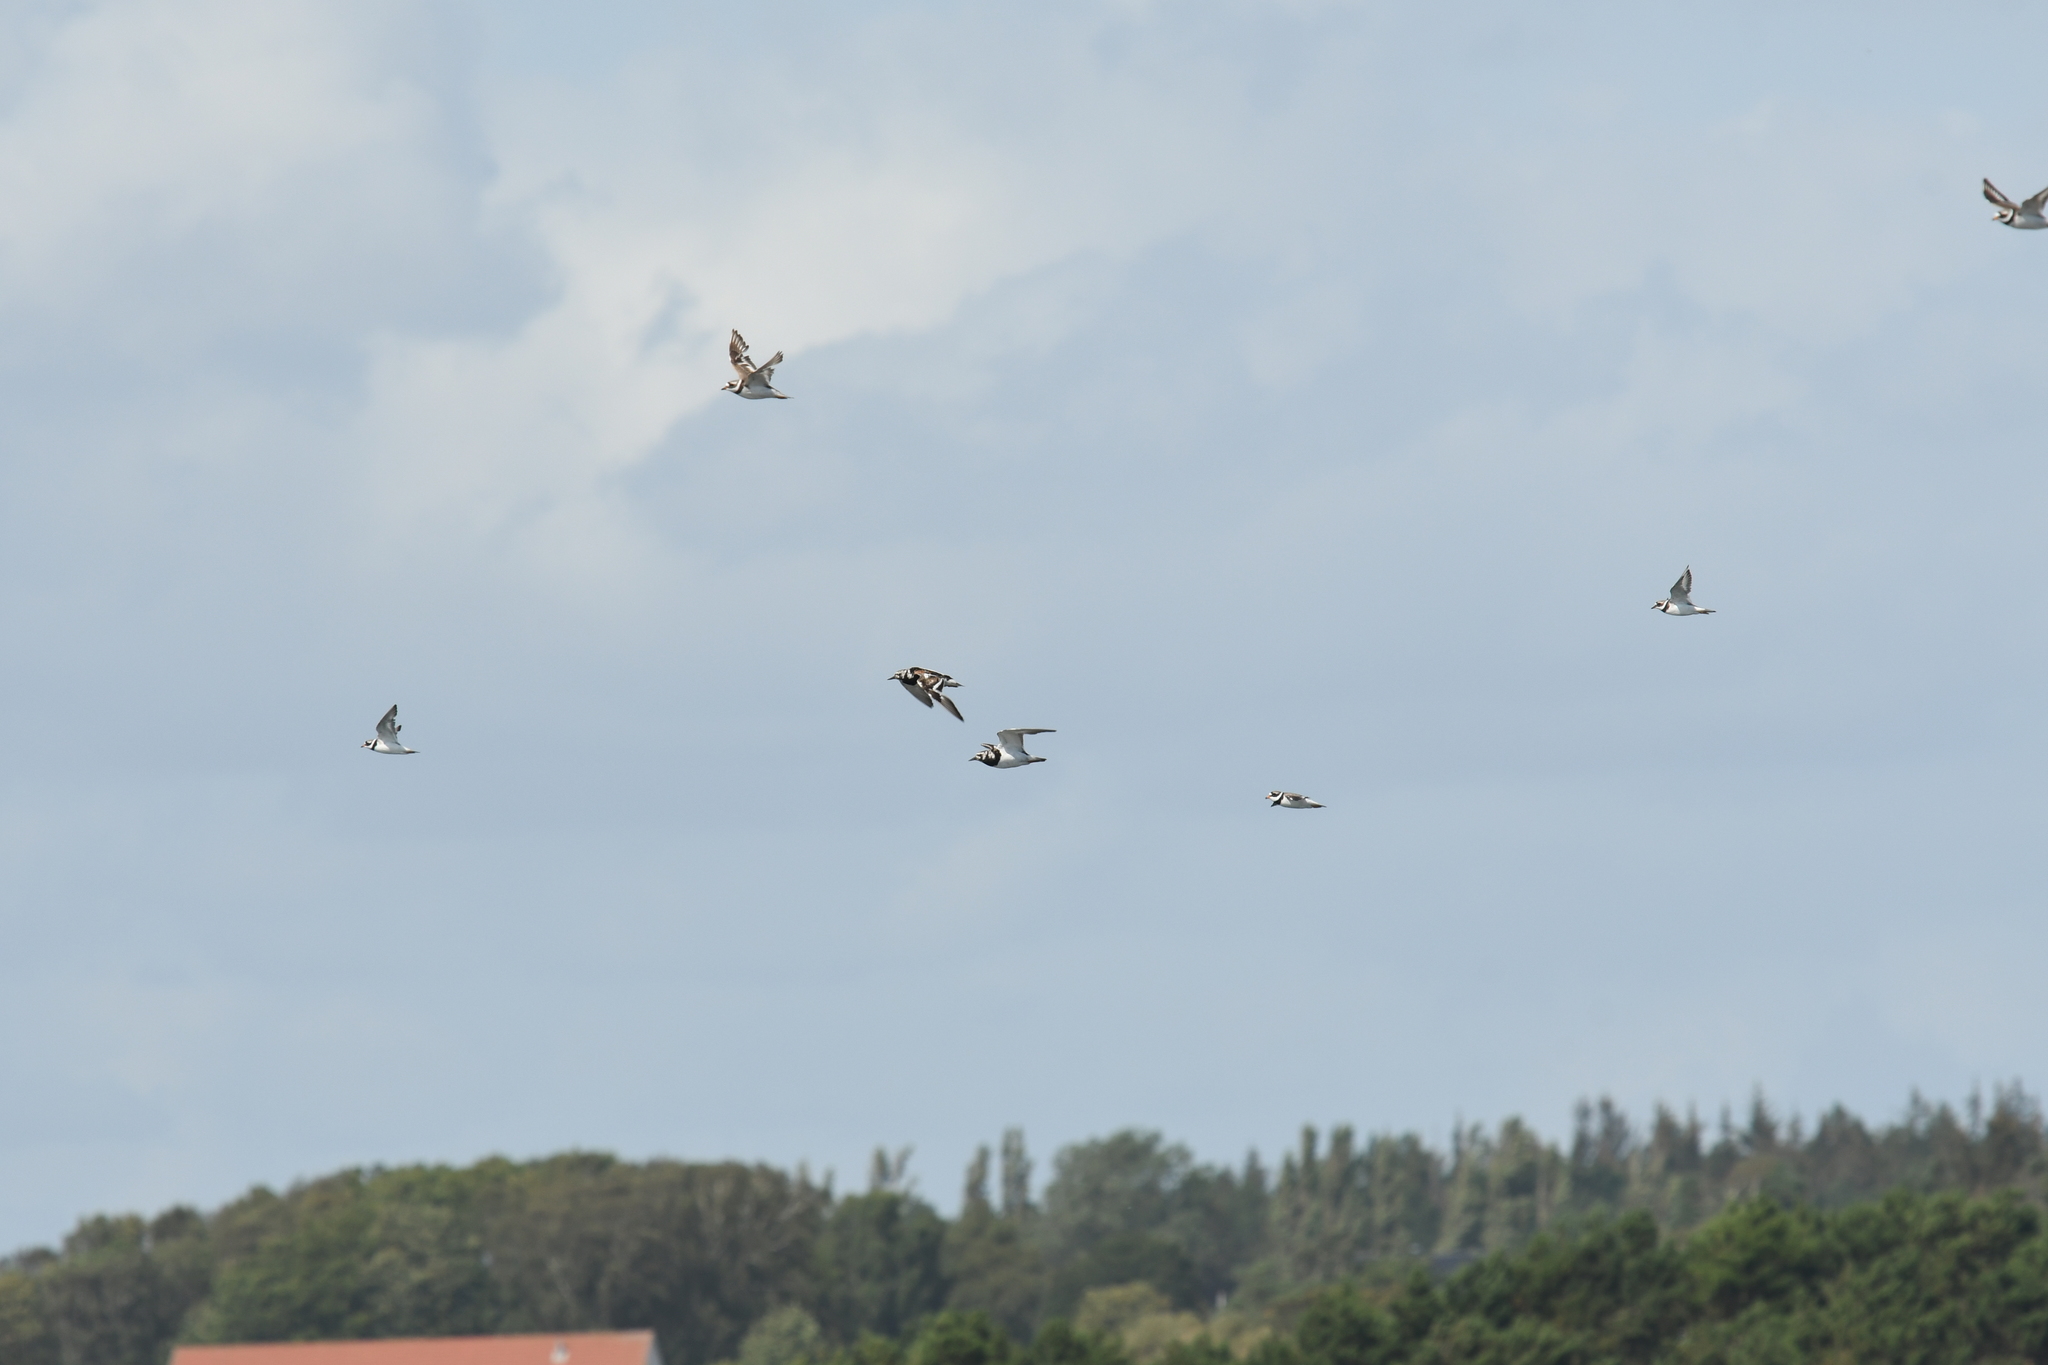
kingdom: Animalia
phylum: Chordata
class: Aves
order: Charadriiformes
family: Scolopacidae
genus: Arenaria
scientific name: Arenaria interpres
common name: Ruddy turnstone
